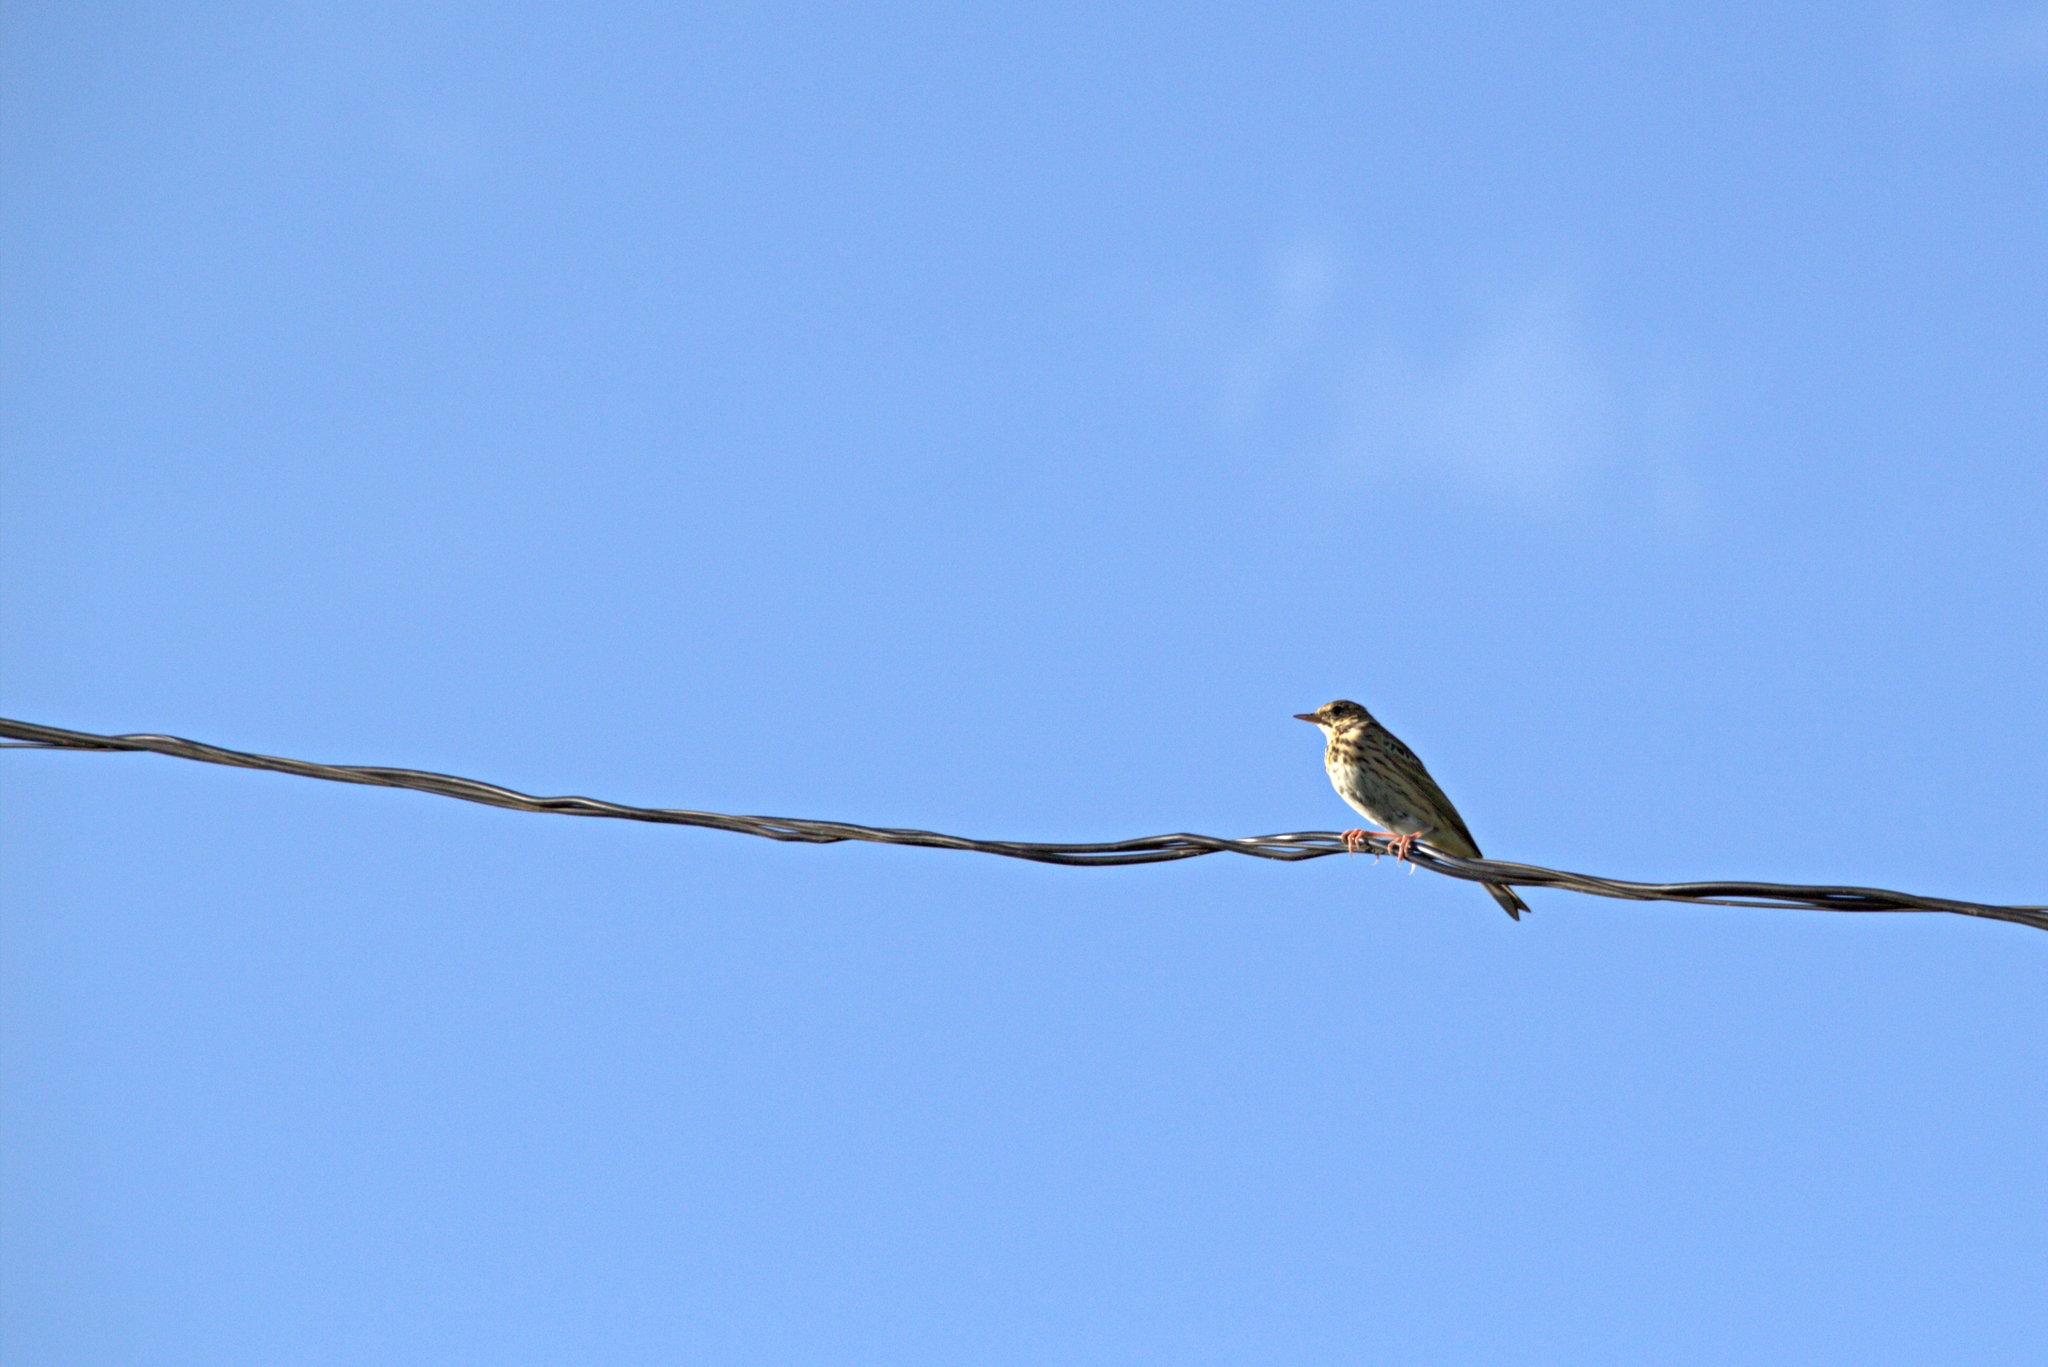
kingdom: Animalia
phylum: Chordata
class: Aves
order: Passeriformes
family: Motacillidae
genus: Anthus
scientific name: Anthus trivialis
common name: Tree pipit
